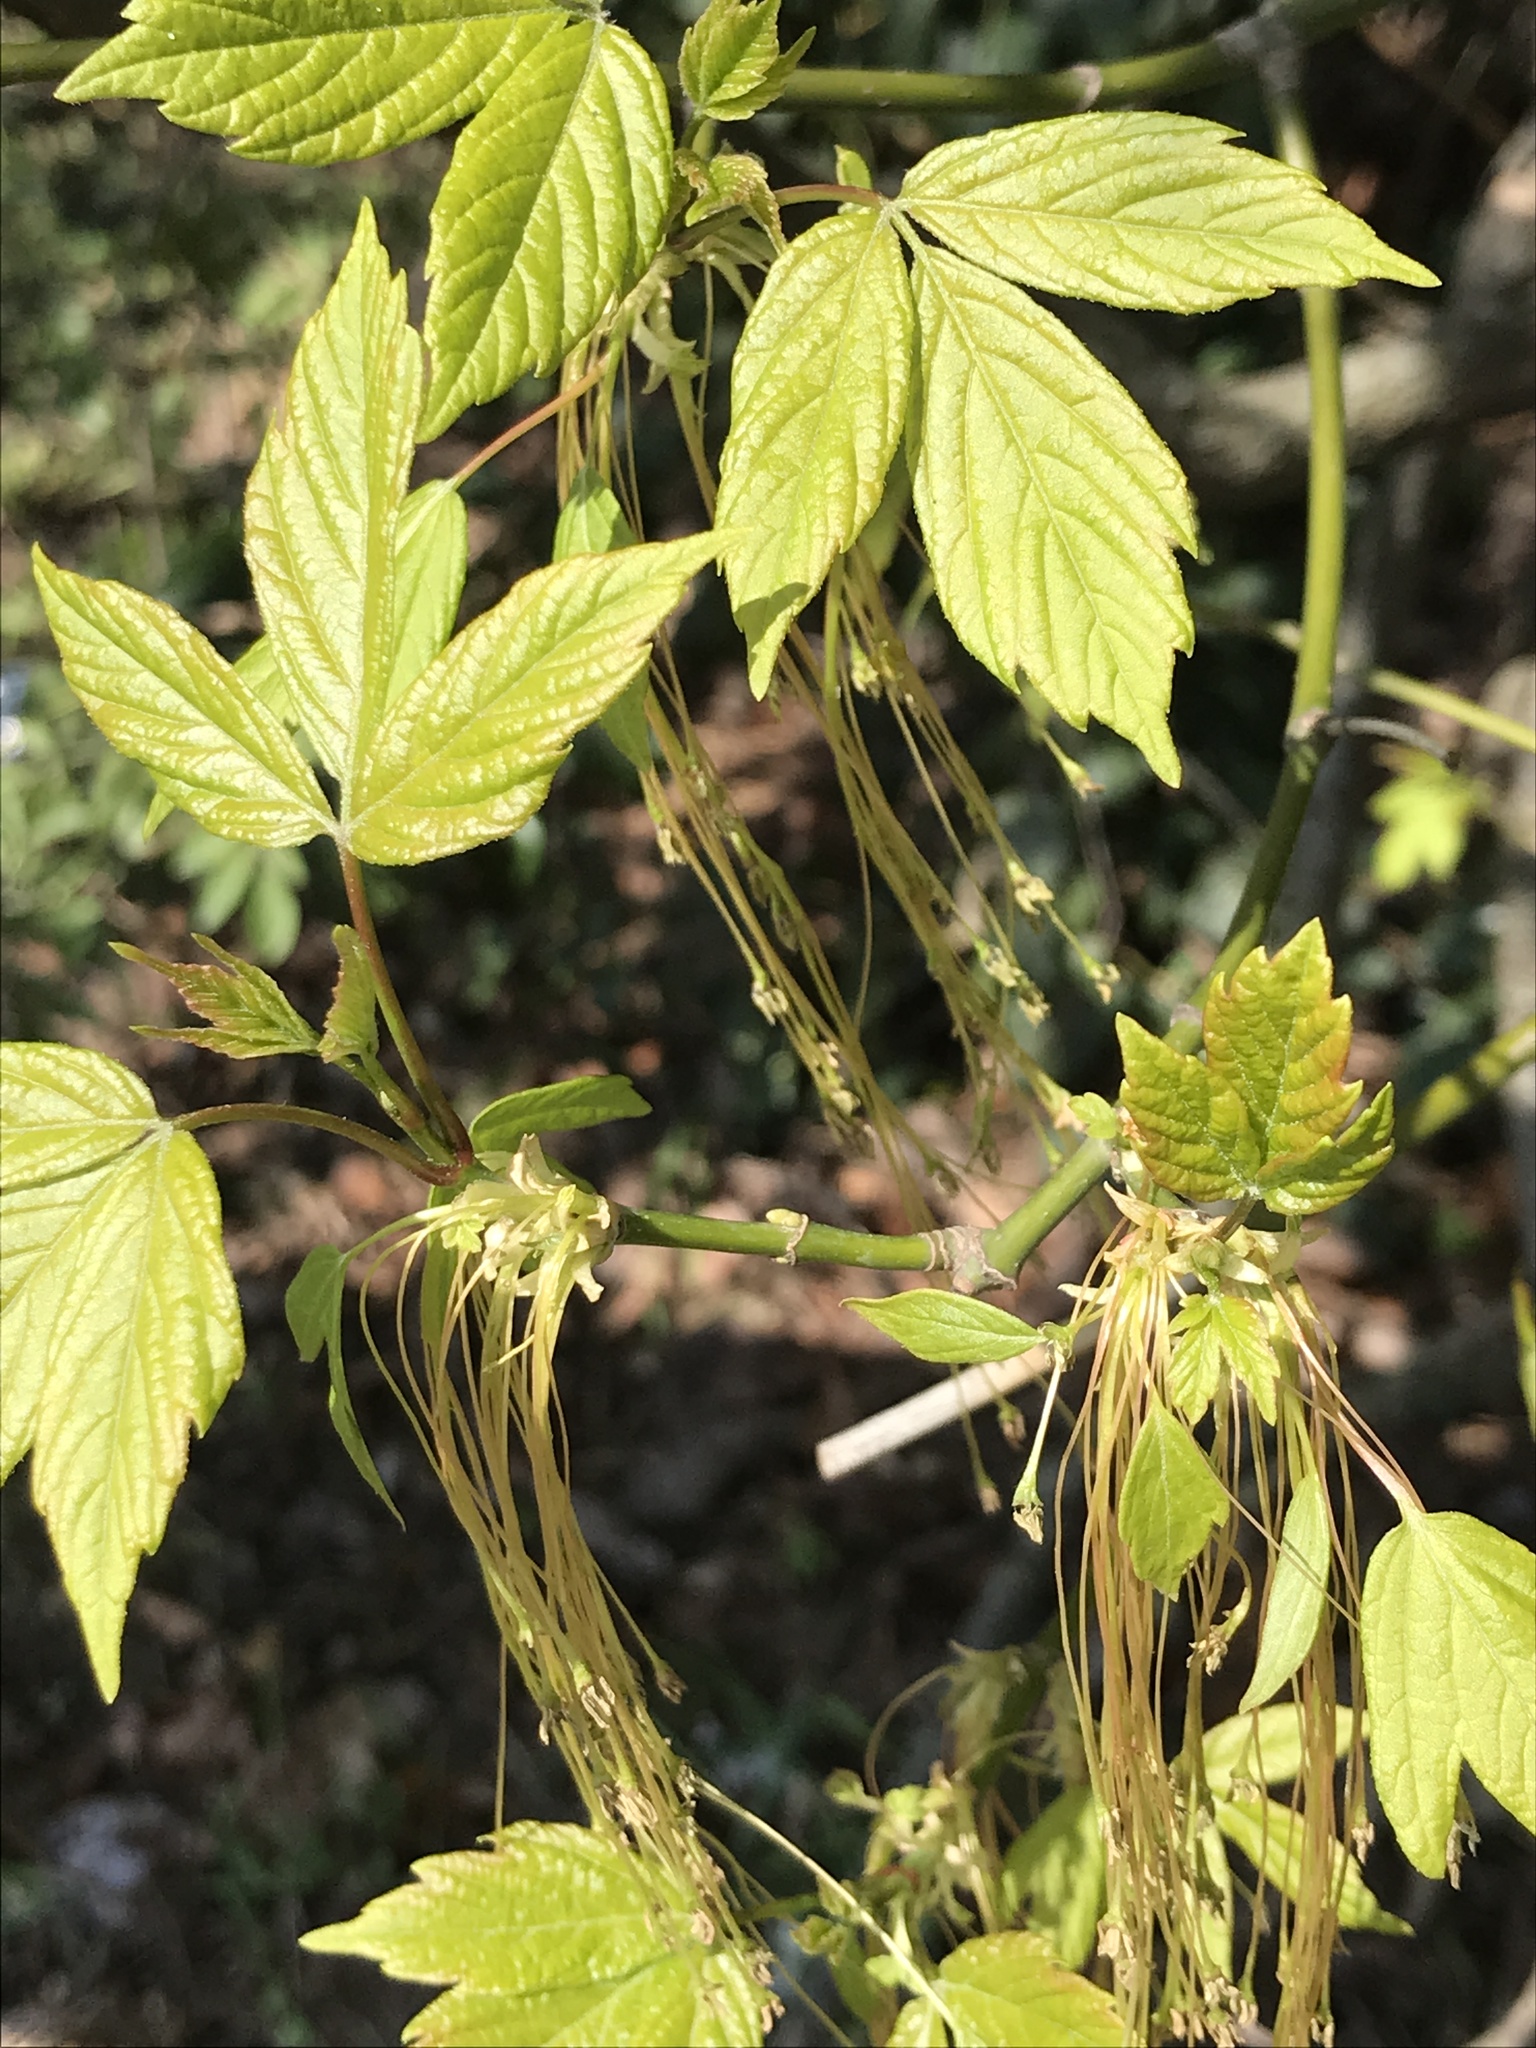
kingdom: Plantae
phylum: Tracheophyta
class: Magnoliopsida
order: Sapindales
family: Sapindaceae
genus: Acer
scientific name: Acer negundo
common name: Ashleaf maple
